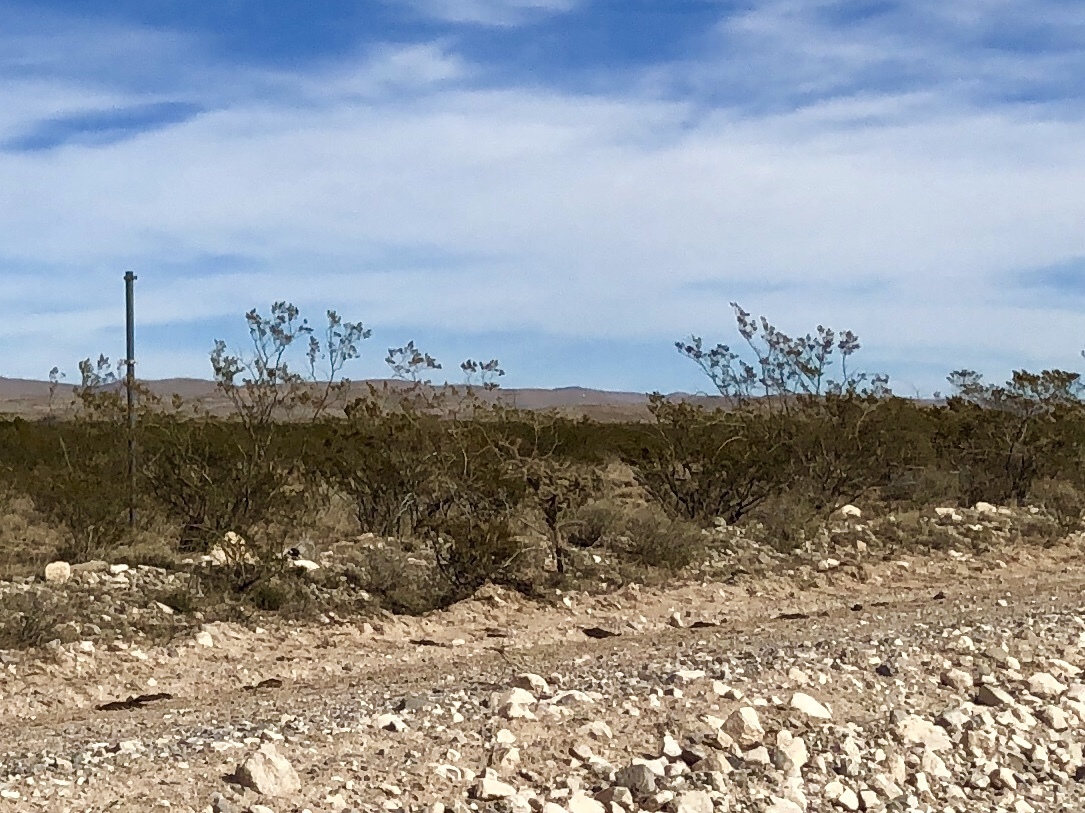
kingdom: Plantae
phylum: Tracheophyta
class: Magnoliopsida
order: Zygophyllales
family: Zygophyllaceae
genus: Larrea
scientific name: Larrea tridentata
